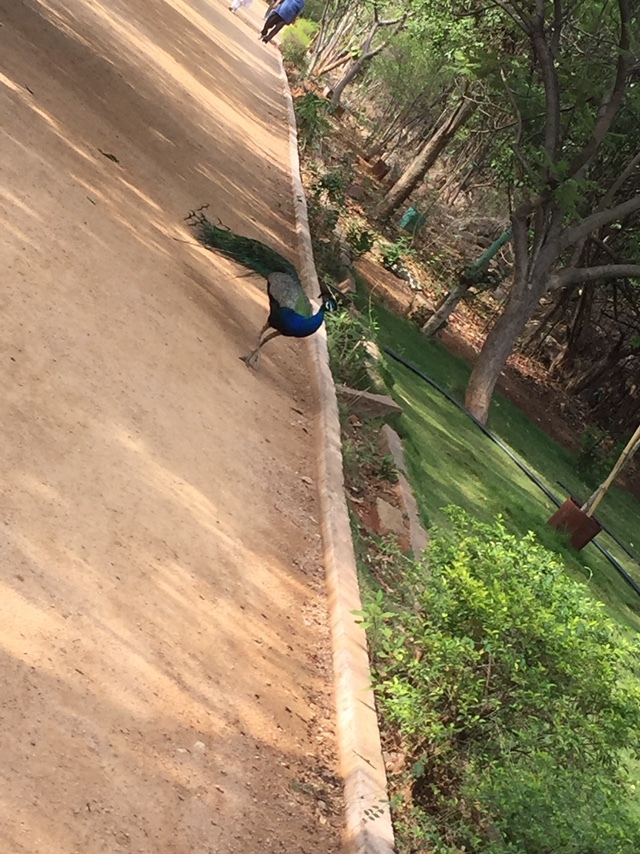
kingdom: Animalia
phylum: Chordata
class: Aves
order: Galliformes
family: Phasianidae
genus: Pavo
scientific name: Pavo cristatus
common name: Indian peafowl
